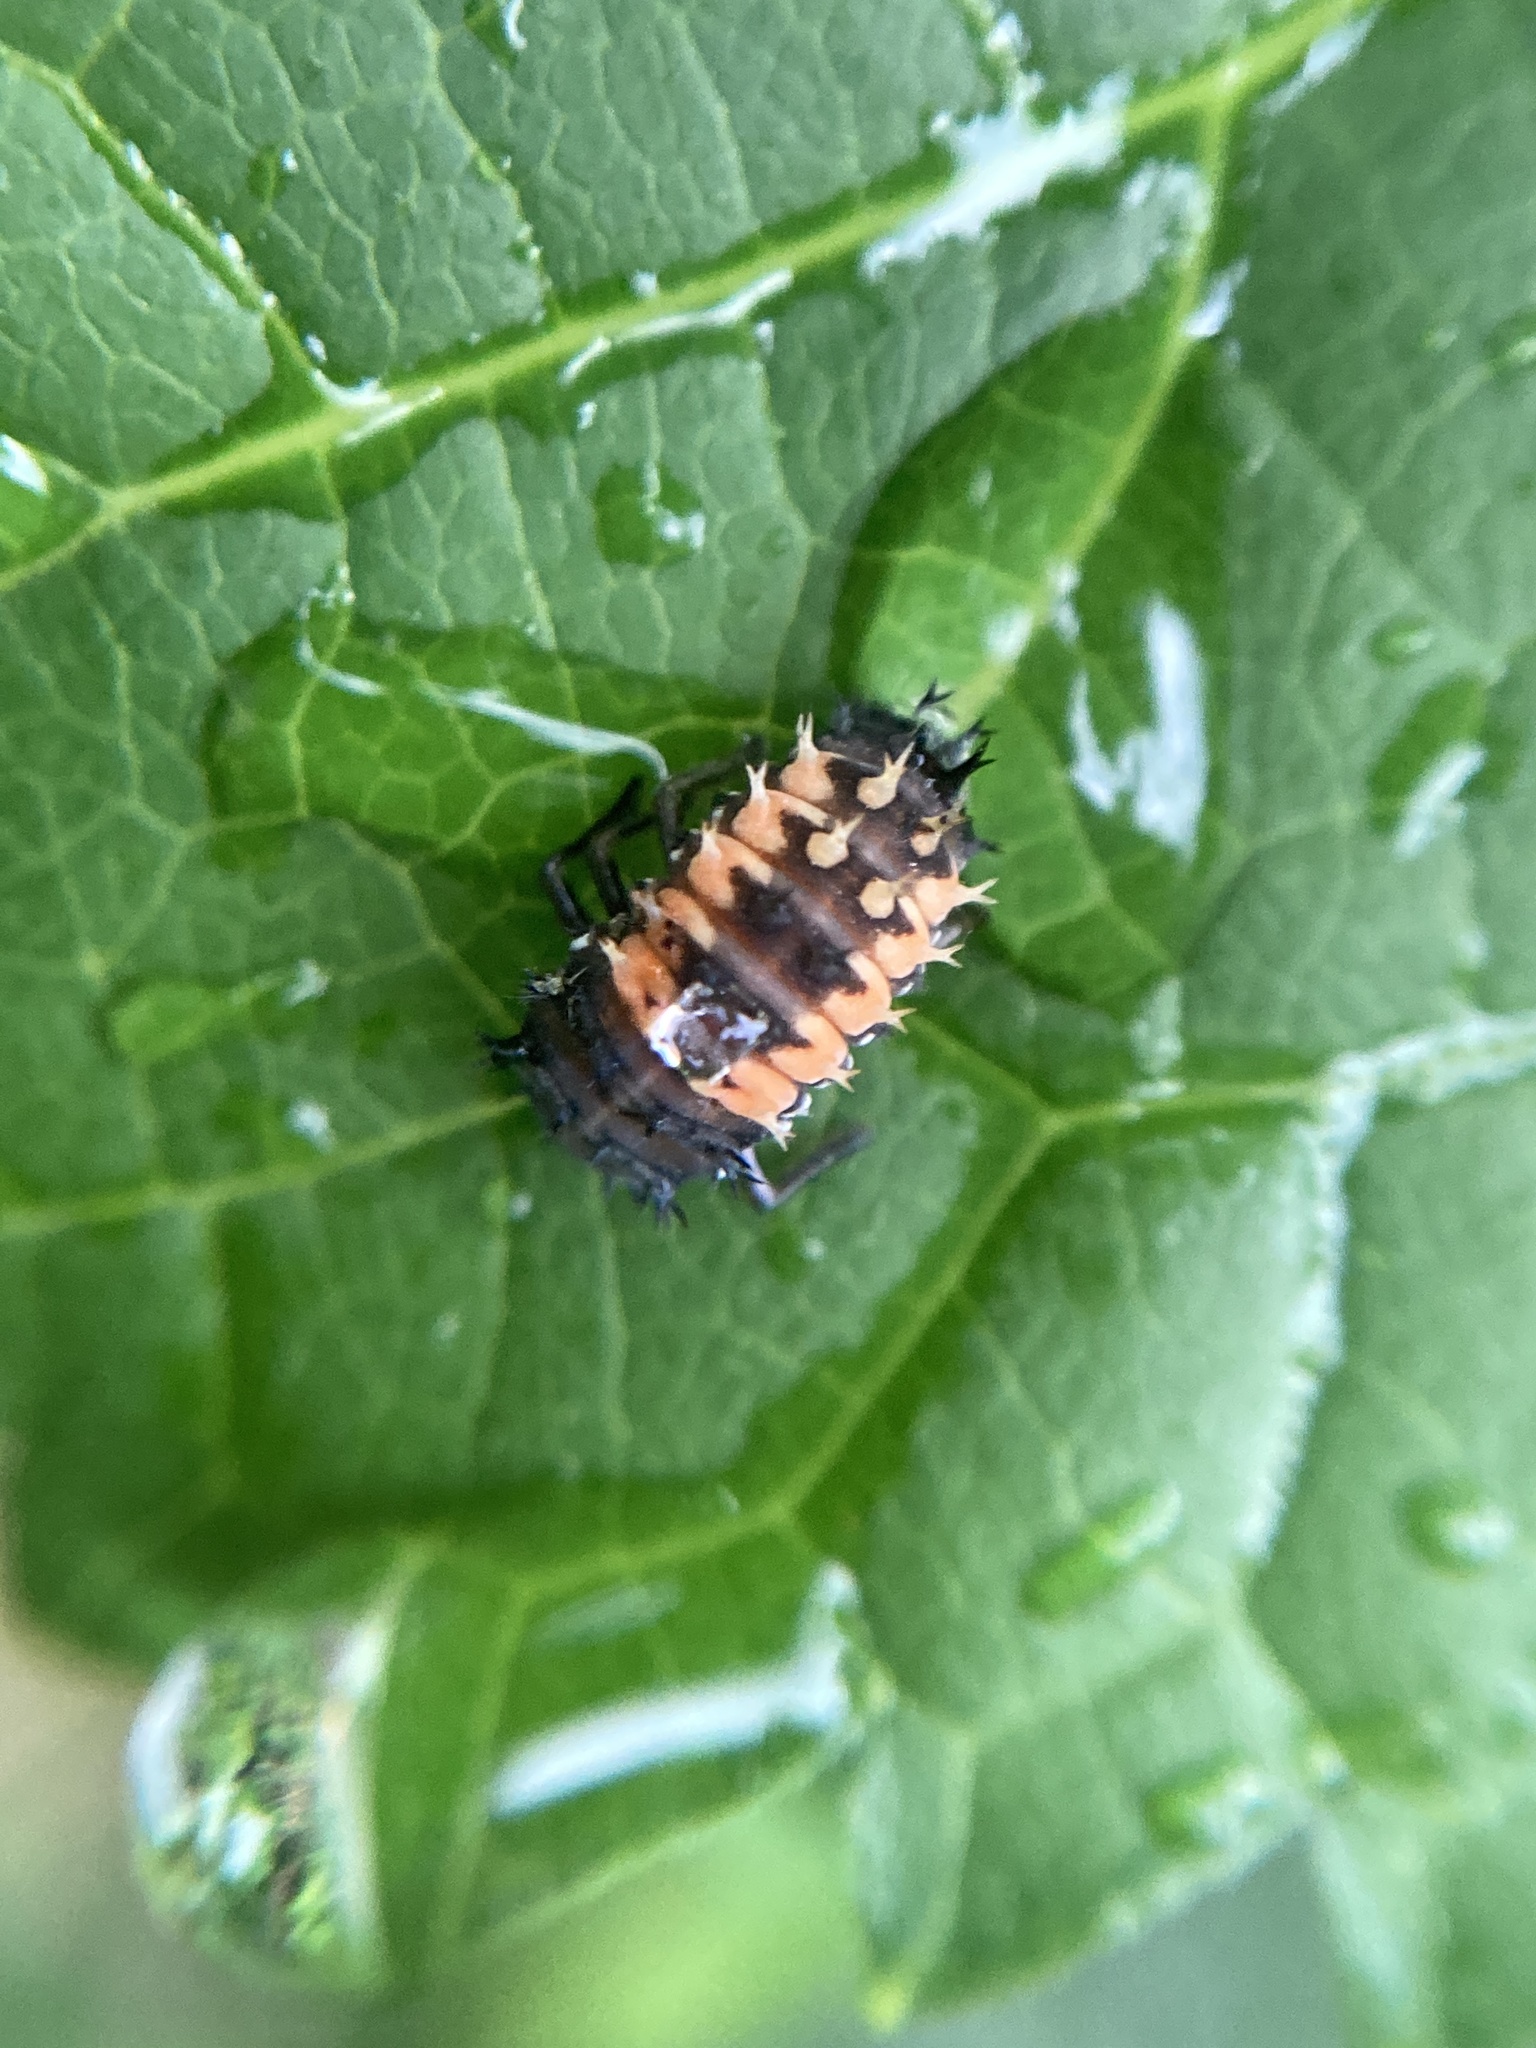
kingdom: Animalia
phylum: Arthropoda
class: Insecta
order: Coleoptera
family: Coccinellidae
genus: Harmonia
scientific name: Harmonia axyridis
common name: Harlequin ladybird
